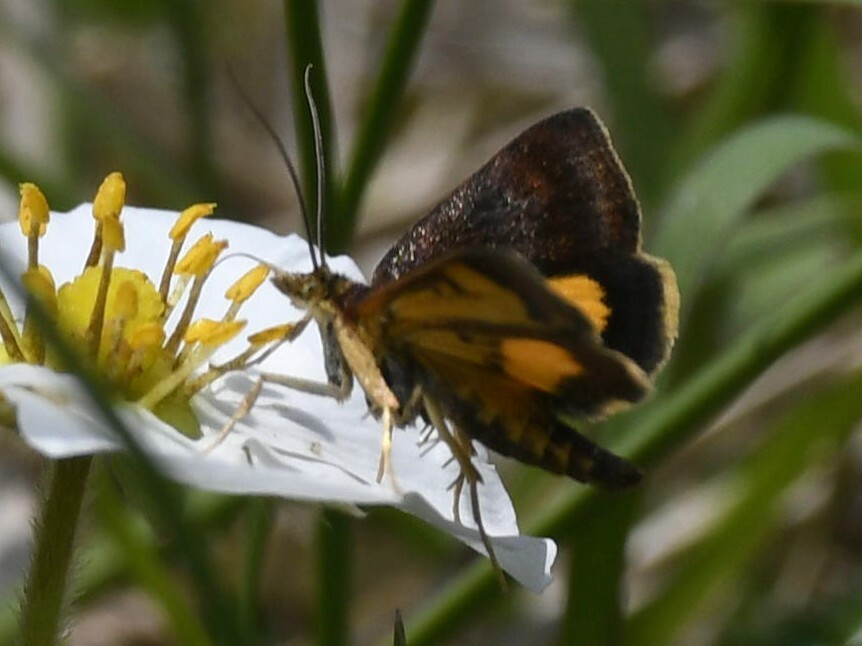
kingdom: Animalia
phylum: Arthropoda
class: Insecta
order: Lepidoptera
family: Crambidae
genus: Pyrausta
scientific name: Pyrausta silhetalis
